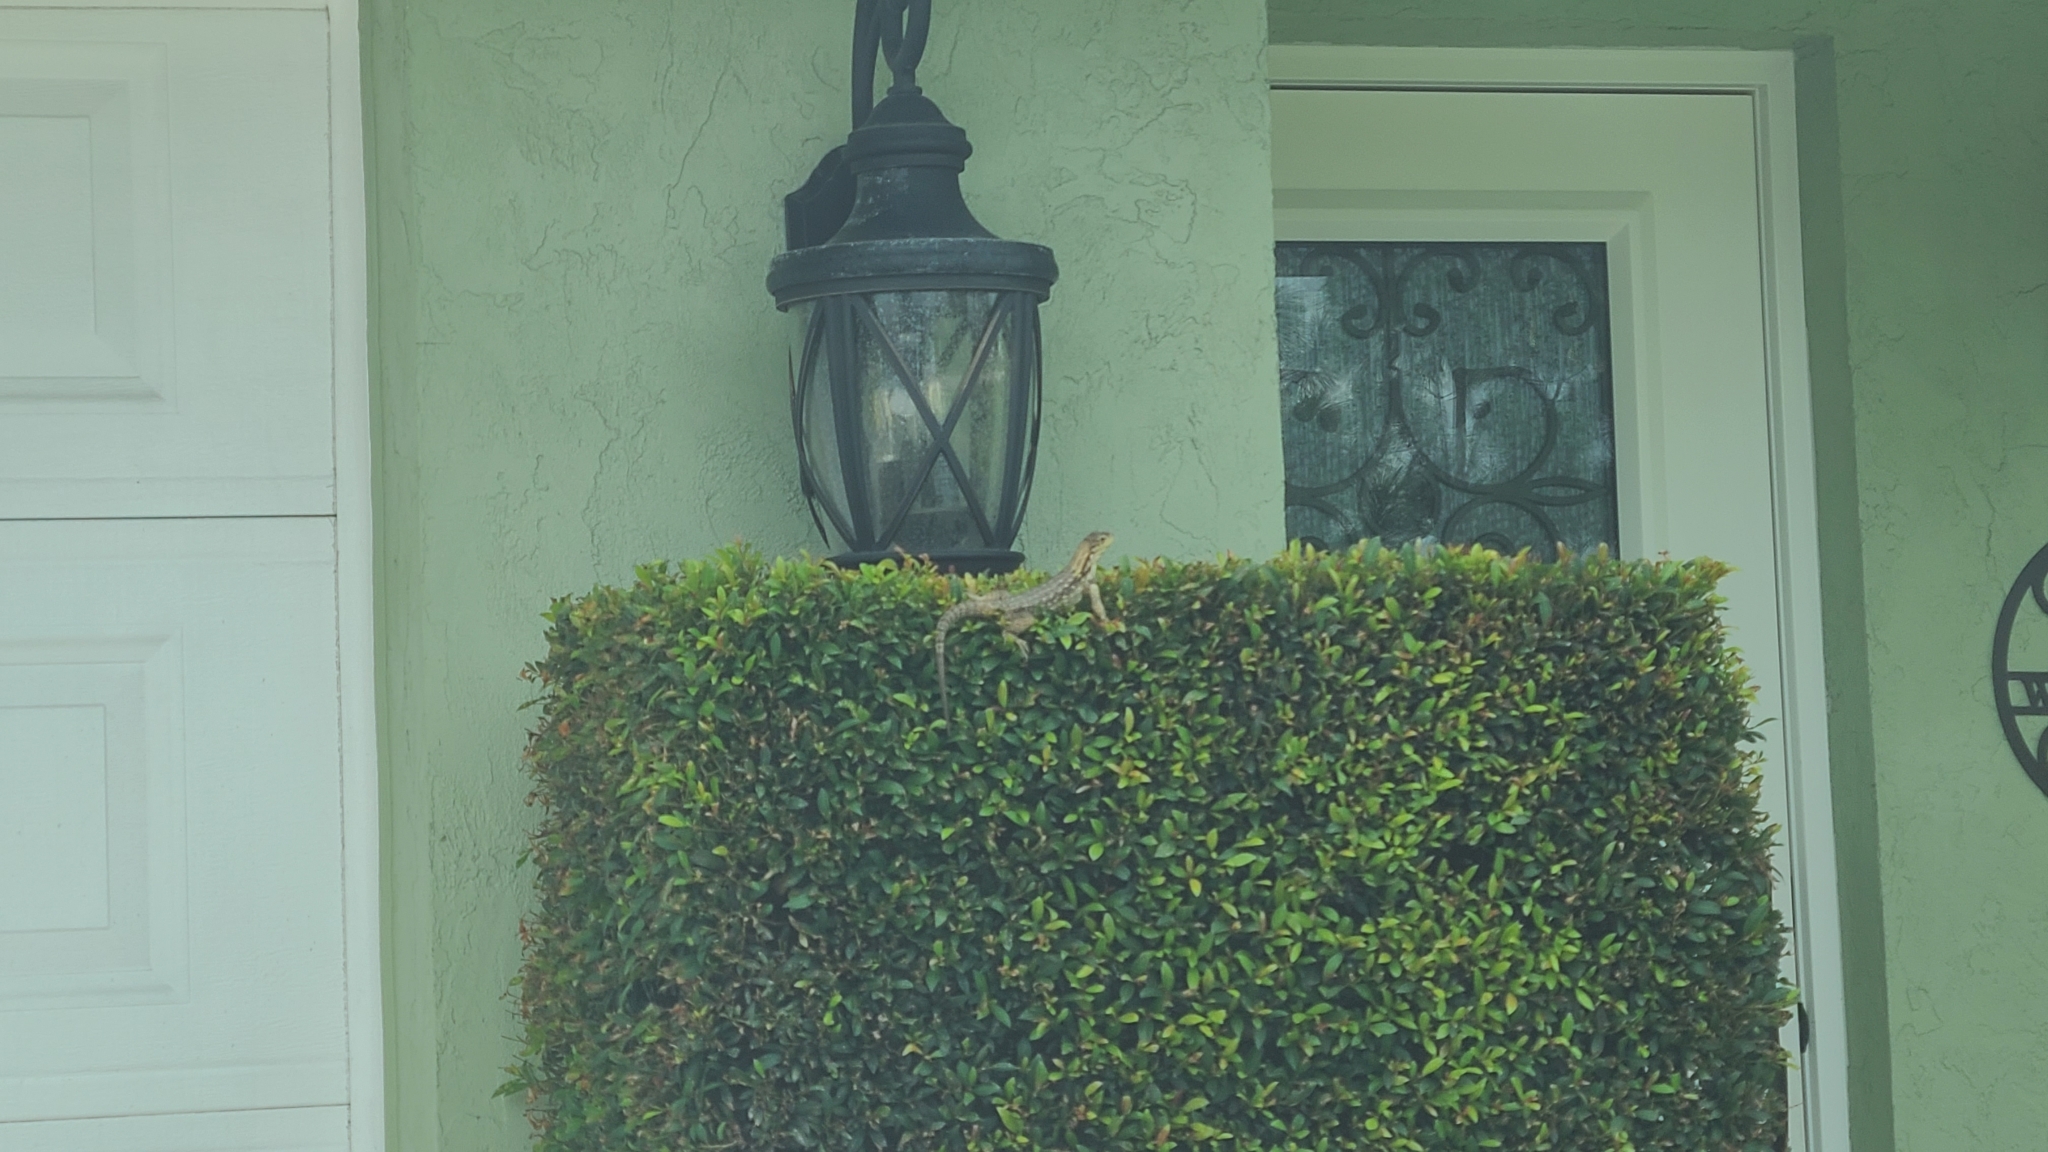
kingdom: Animalia
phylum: Chordata
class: Squamata
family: Leiocephalidae
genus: Leiocephalus
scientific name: Leiocephalus carinatus
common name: Northern curly-tailed lizard
